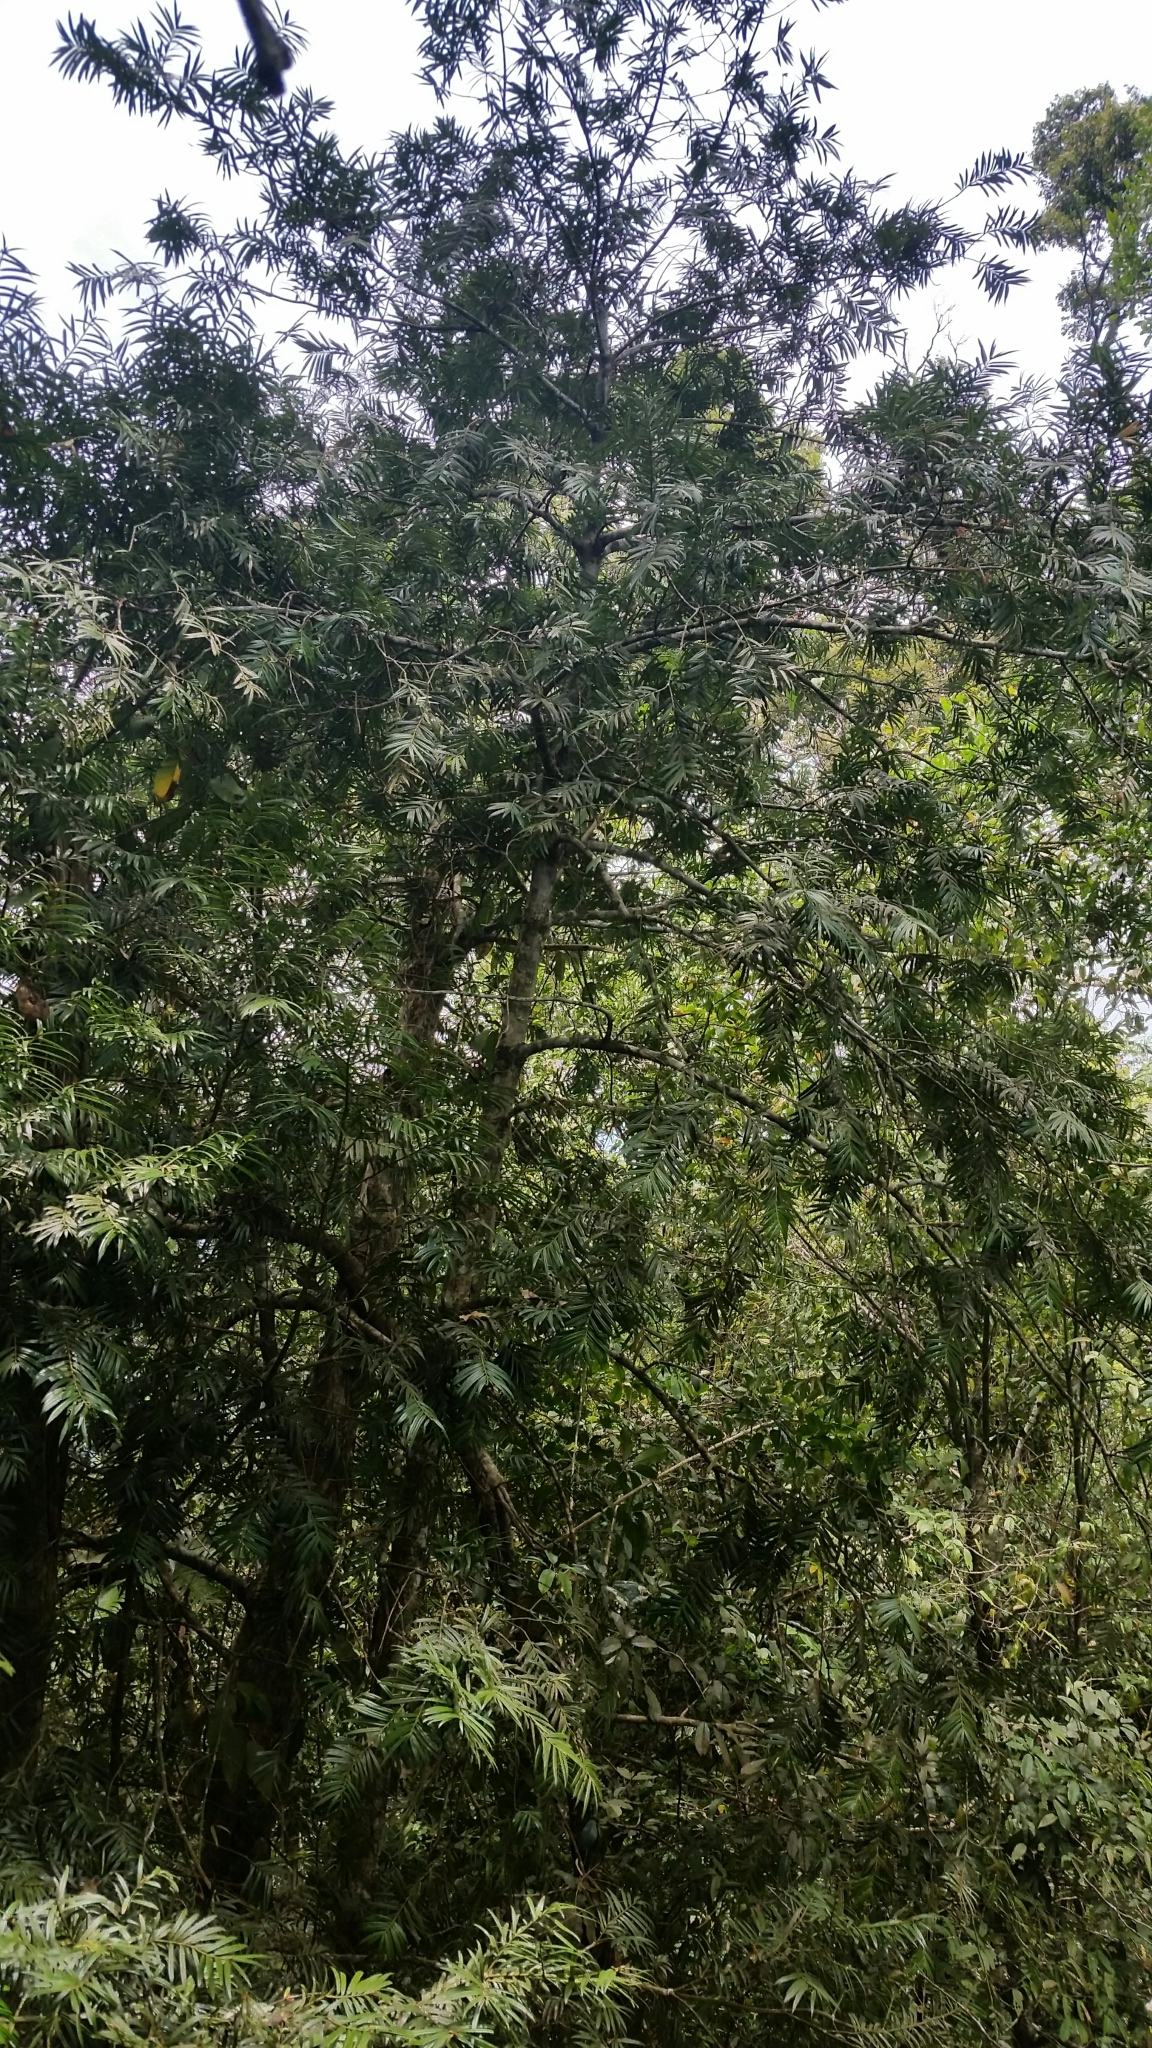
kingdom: Plantae
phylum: Tracheophyta
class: Pinopsida
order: Pinales
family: Taxaceae
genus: Amentotaxus
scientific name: Amentotaxus poilanei
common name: Poilane's catkin yew
